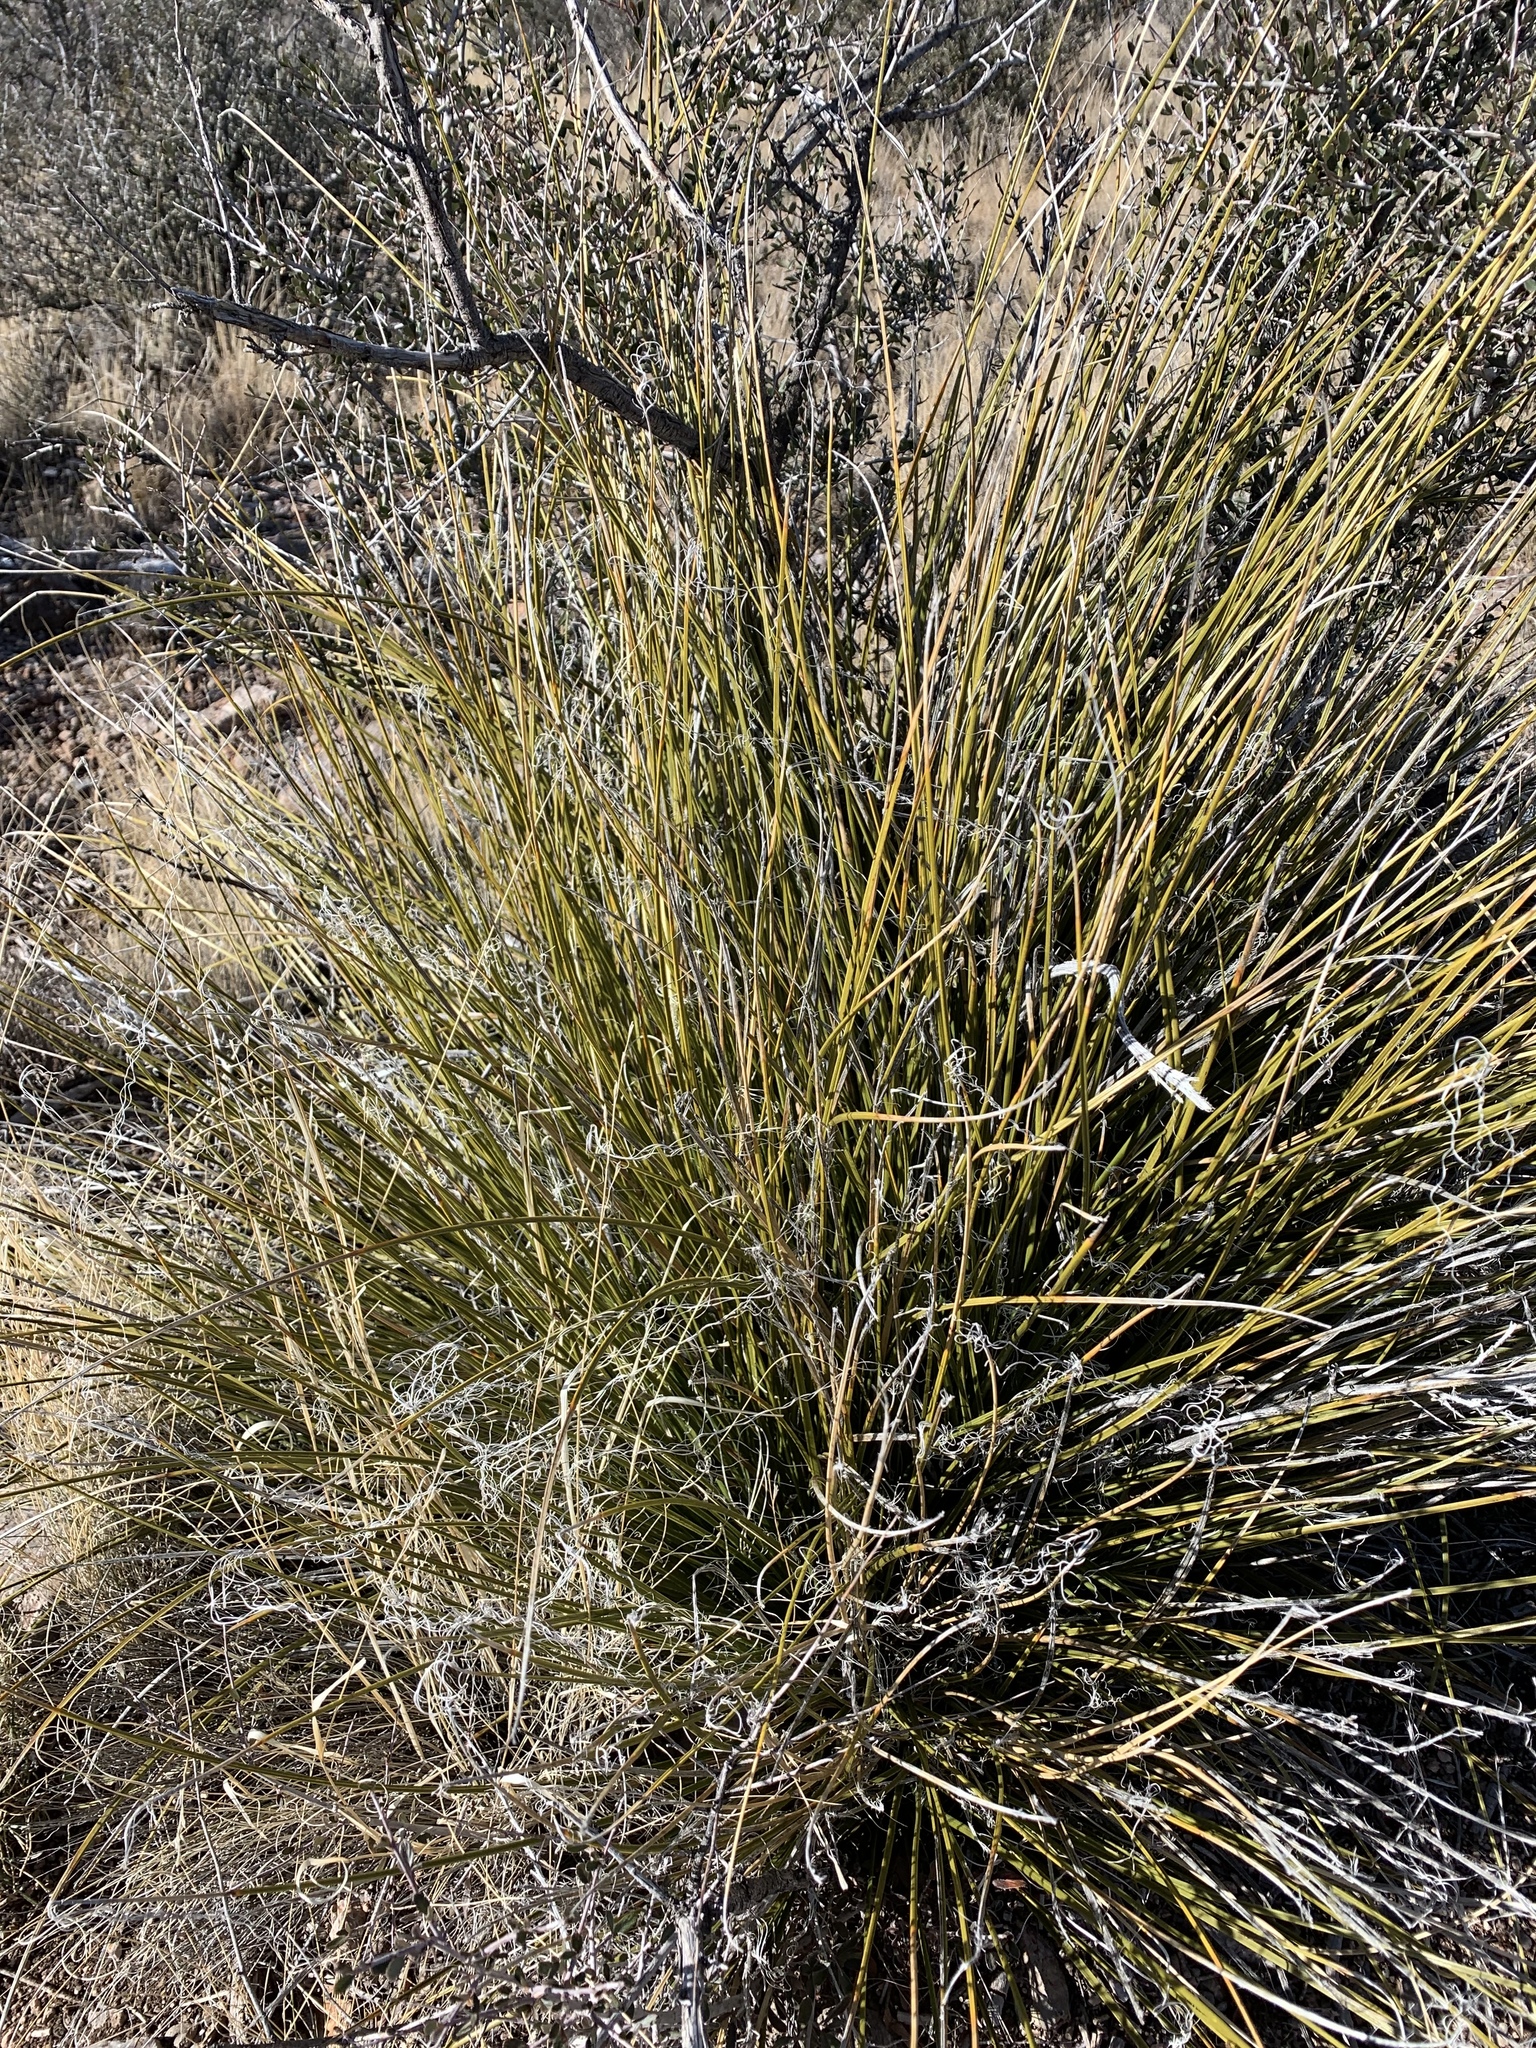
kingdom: Plantae
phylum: Tracheophyta
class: Liliopsida
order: Asparagales
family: Asparagaceae
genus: Nolina
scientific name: Nolina texana
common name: Texas sacahuiste
